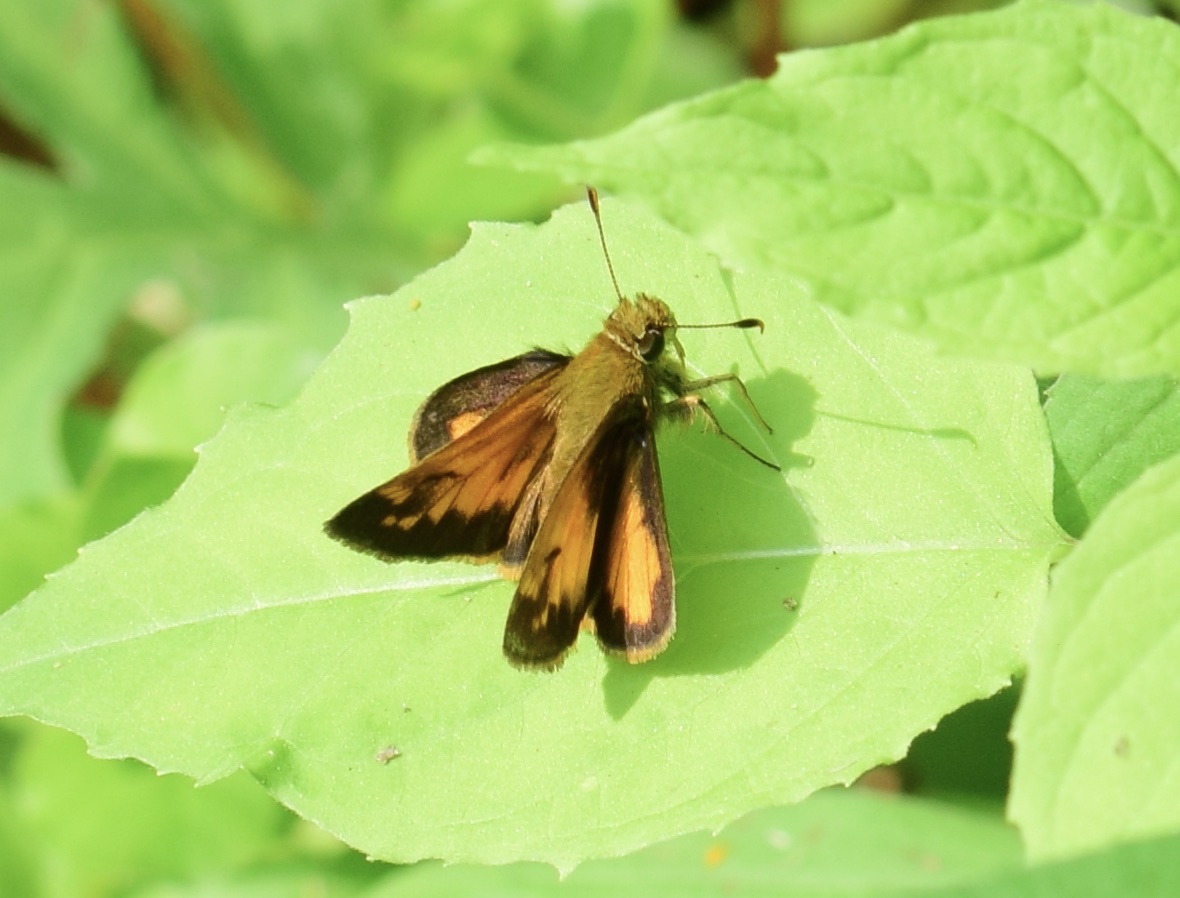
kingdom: Animalia
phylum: Arthropoda
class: Insecta
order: Lepidoptera
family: Hesperiidae
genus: Lon
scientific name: Lon hobomok
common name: Hobomok skipper
